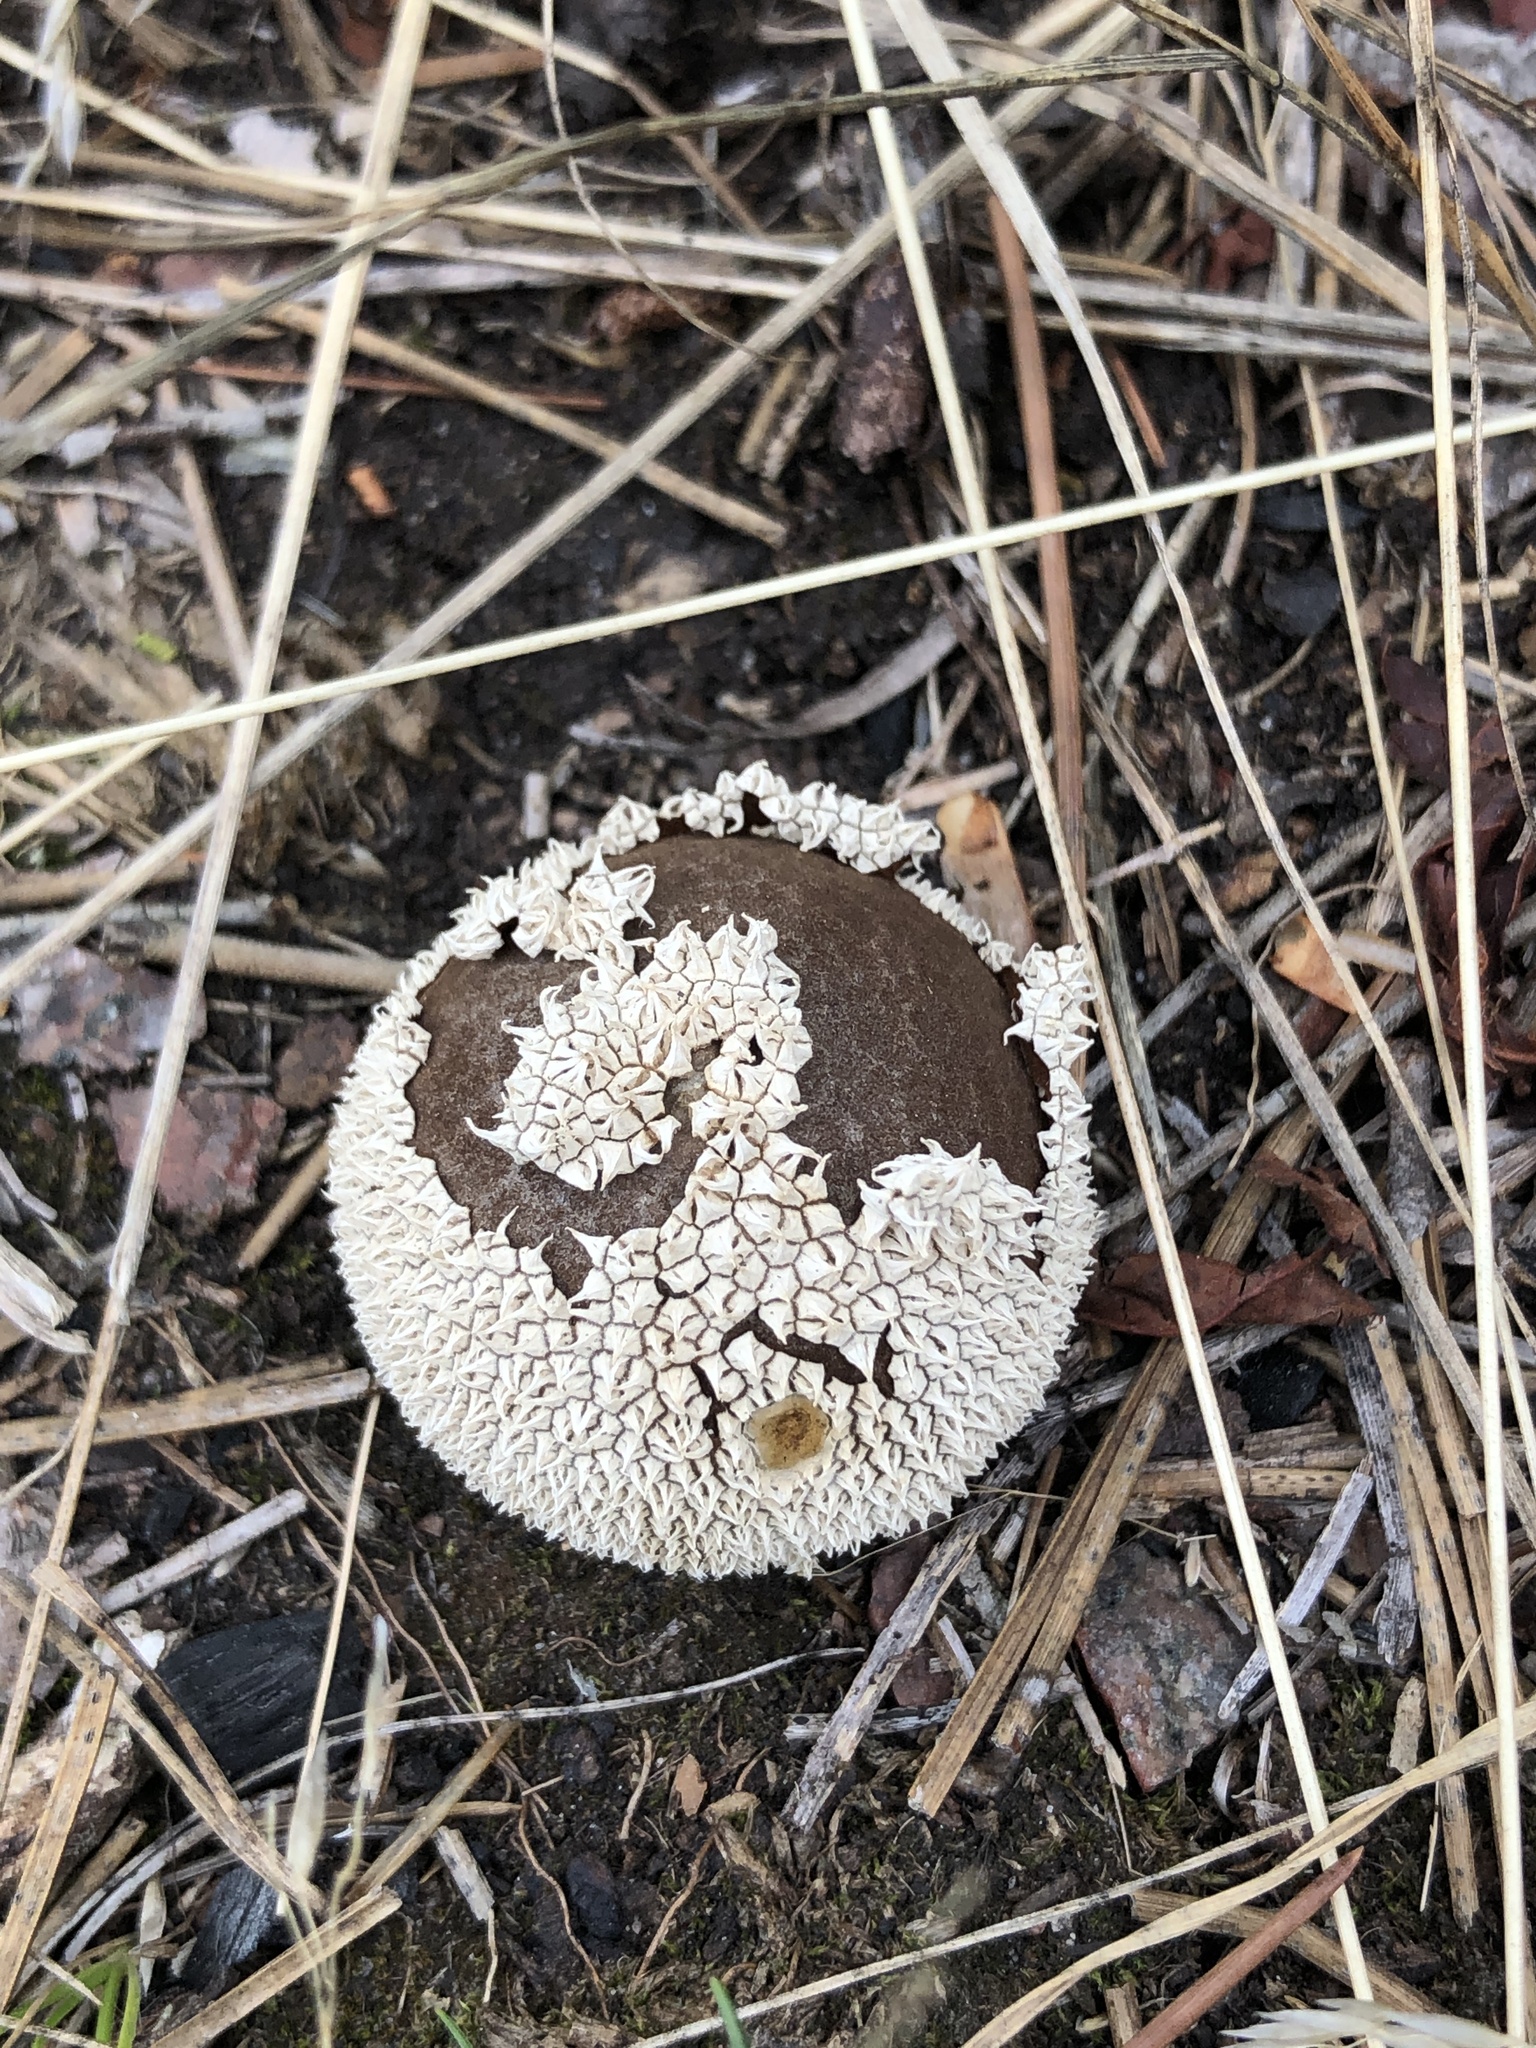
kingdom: Fungi
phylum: Basidiomycota
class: Agaricomycetes
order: Agaricales
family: Agaricaceae
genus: Lycoperdon
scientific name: Lycoperdon marginatum
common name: Peeling puffball
